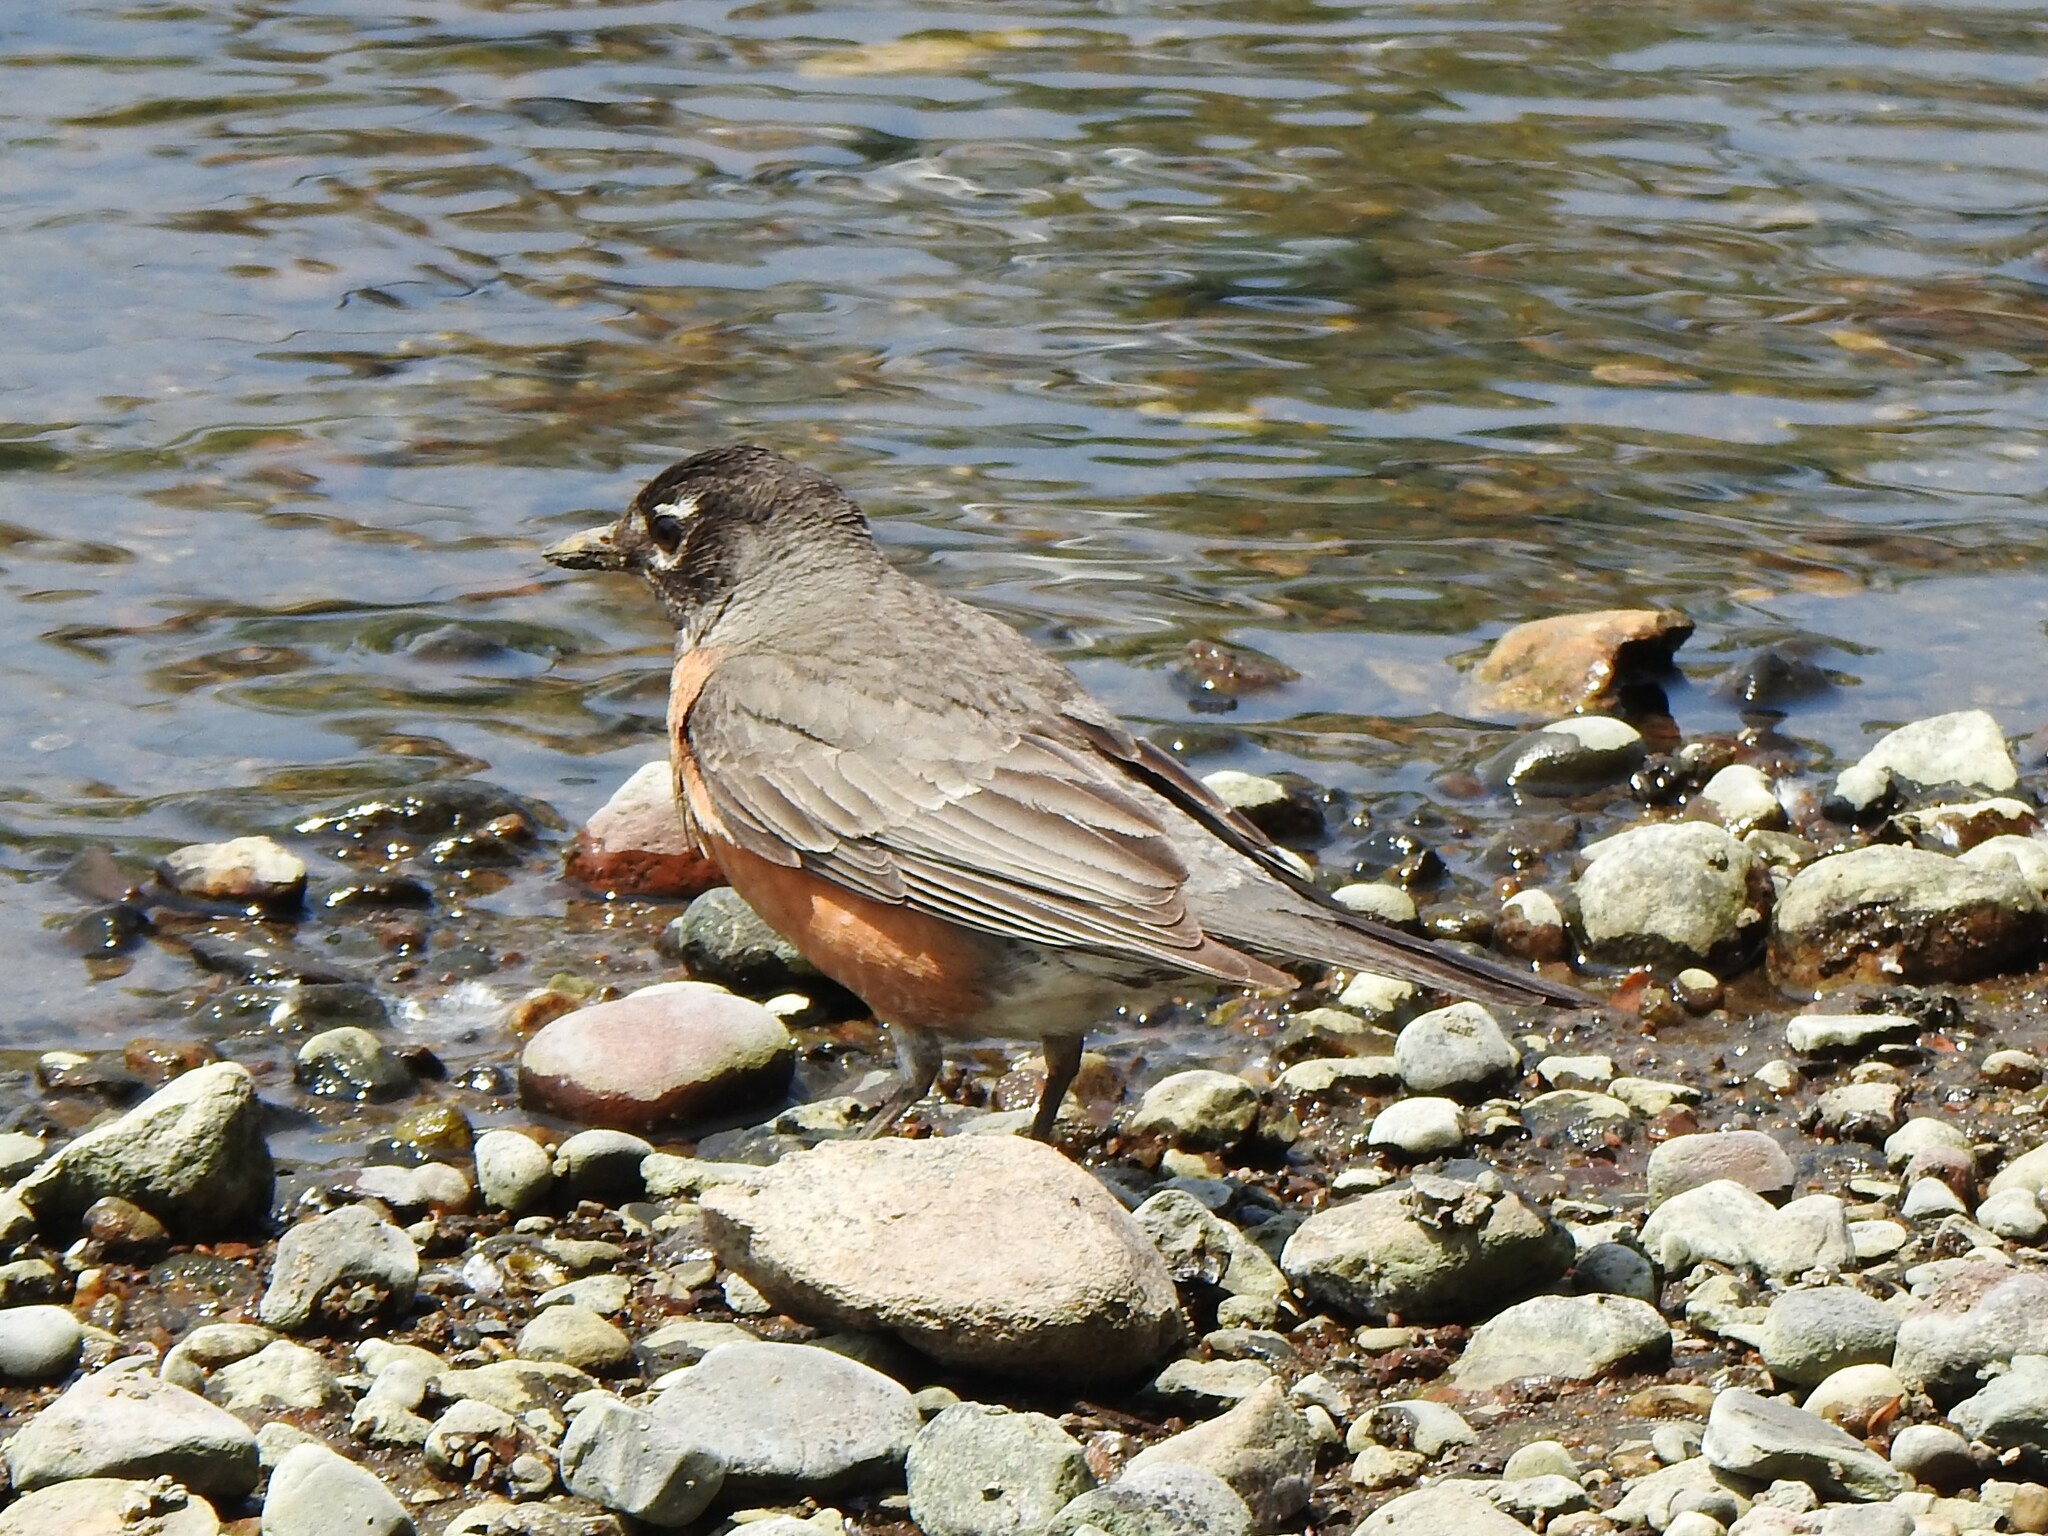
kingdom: Animalia
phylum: Chordata
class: Aves
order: Passeriformes
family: Turdidae
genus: Turdus
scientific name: Turdus migratorius
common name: American robin
